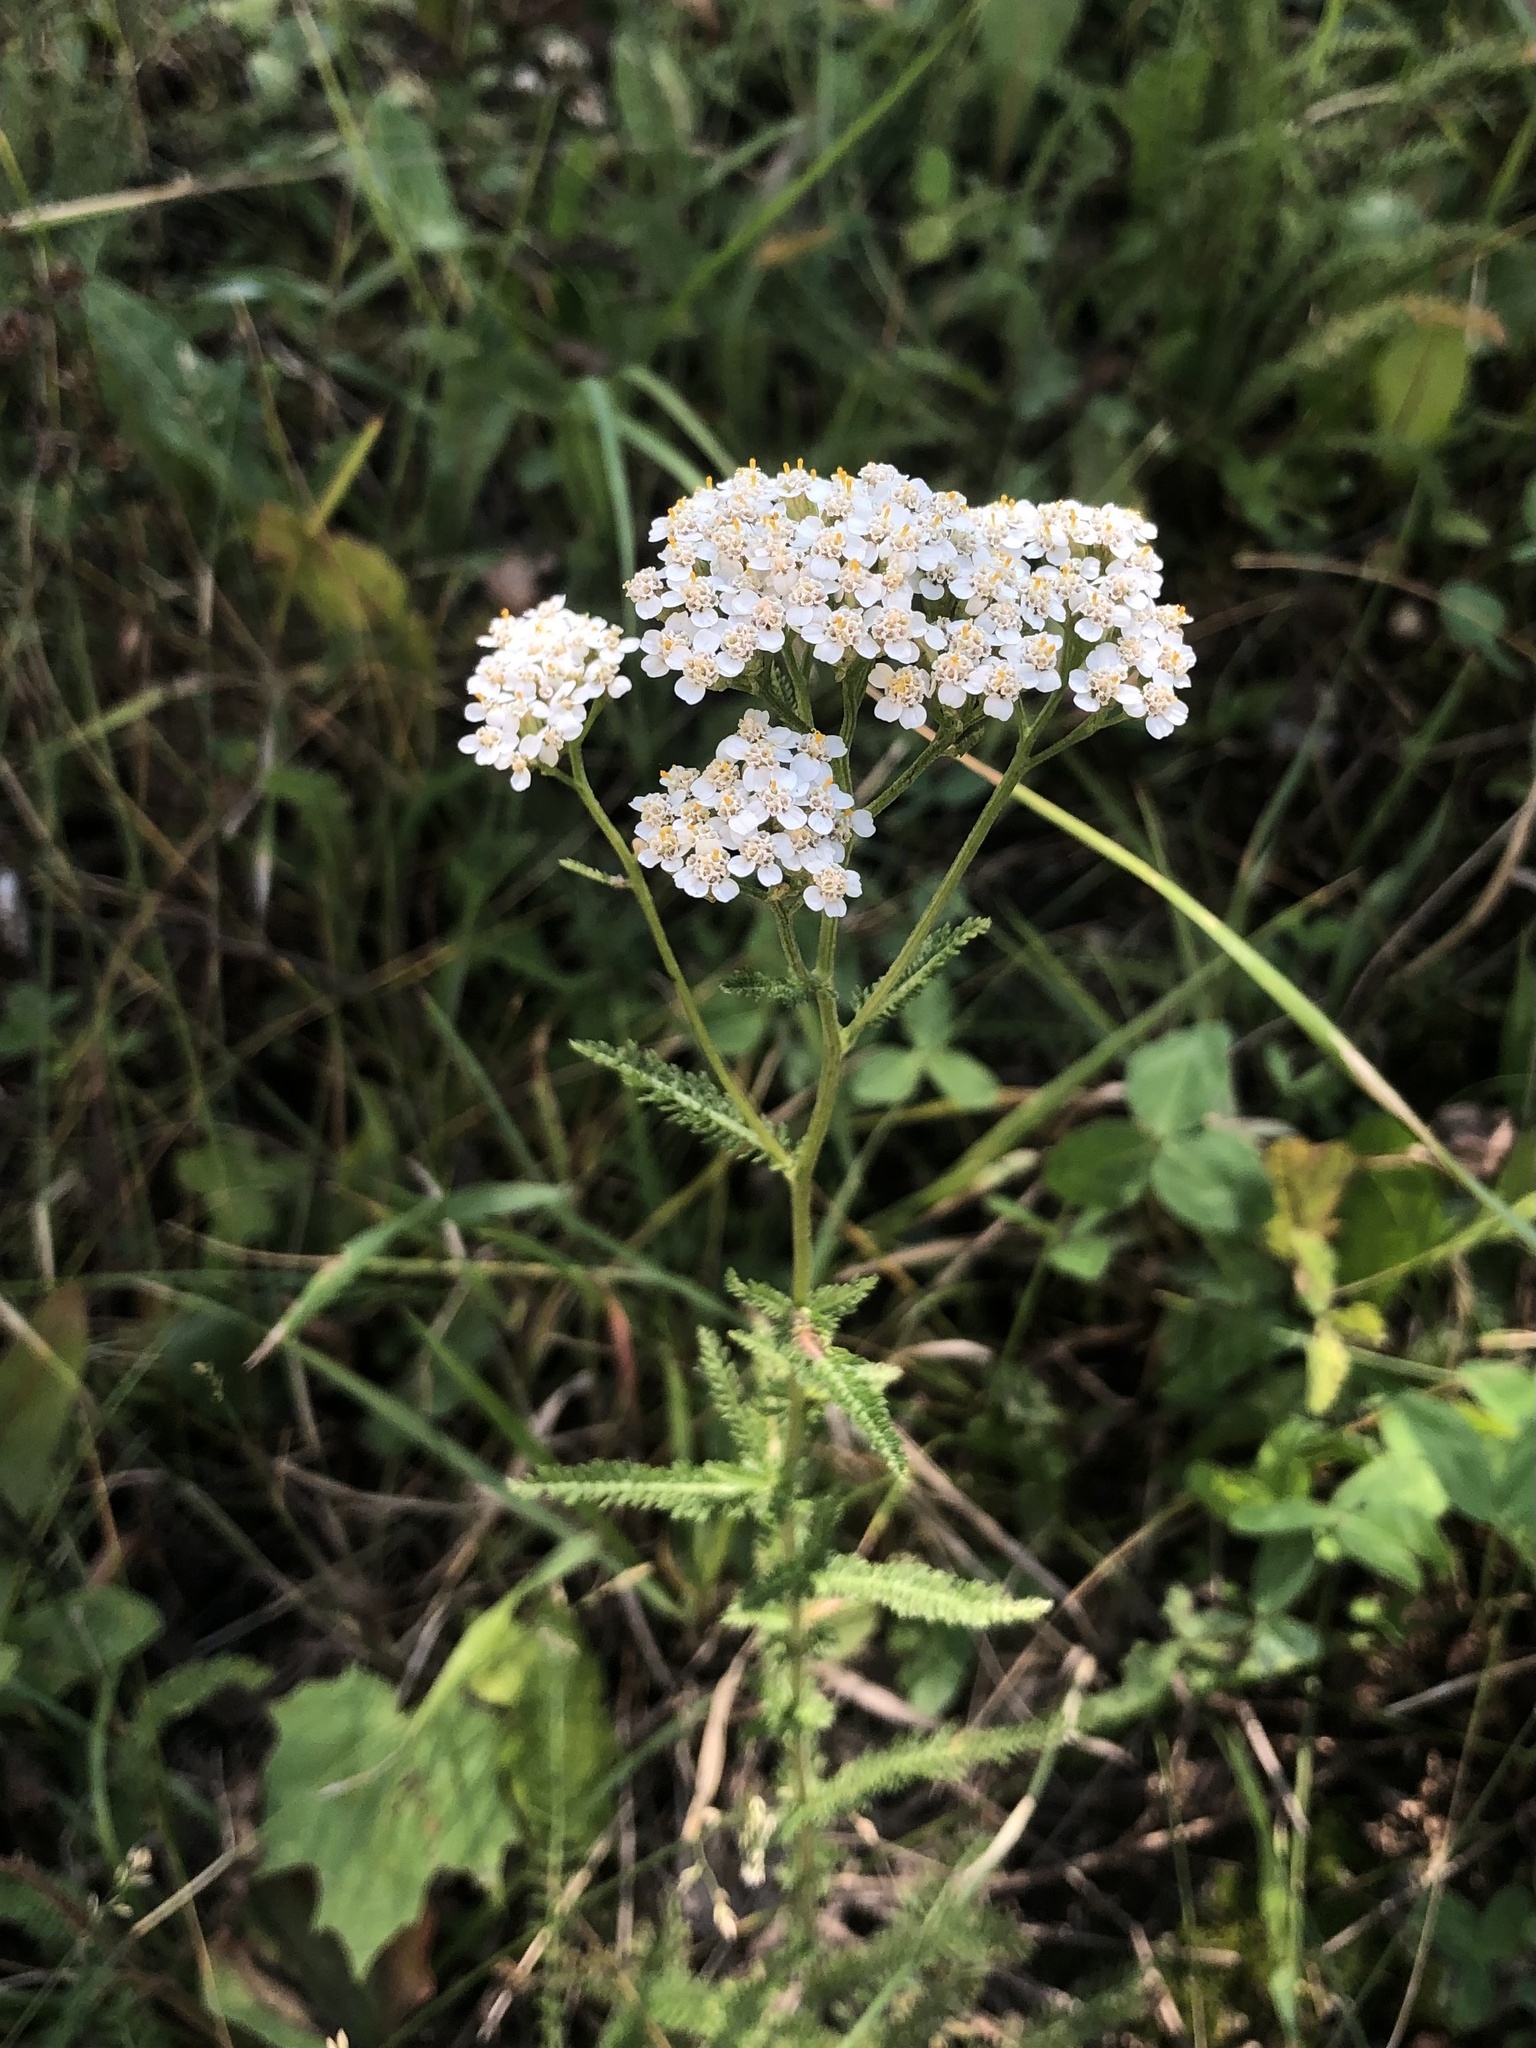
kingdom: Plantae
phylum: Tracheophyta
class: Magnoliopsida
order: Asterales
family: Asteraceae
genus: Achillea
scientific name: Achillea millefolium
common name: Yarrow
